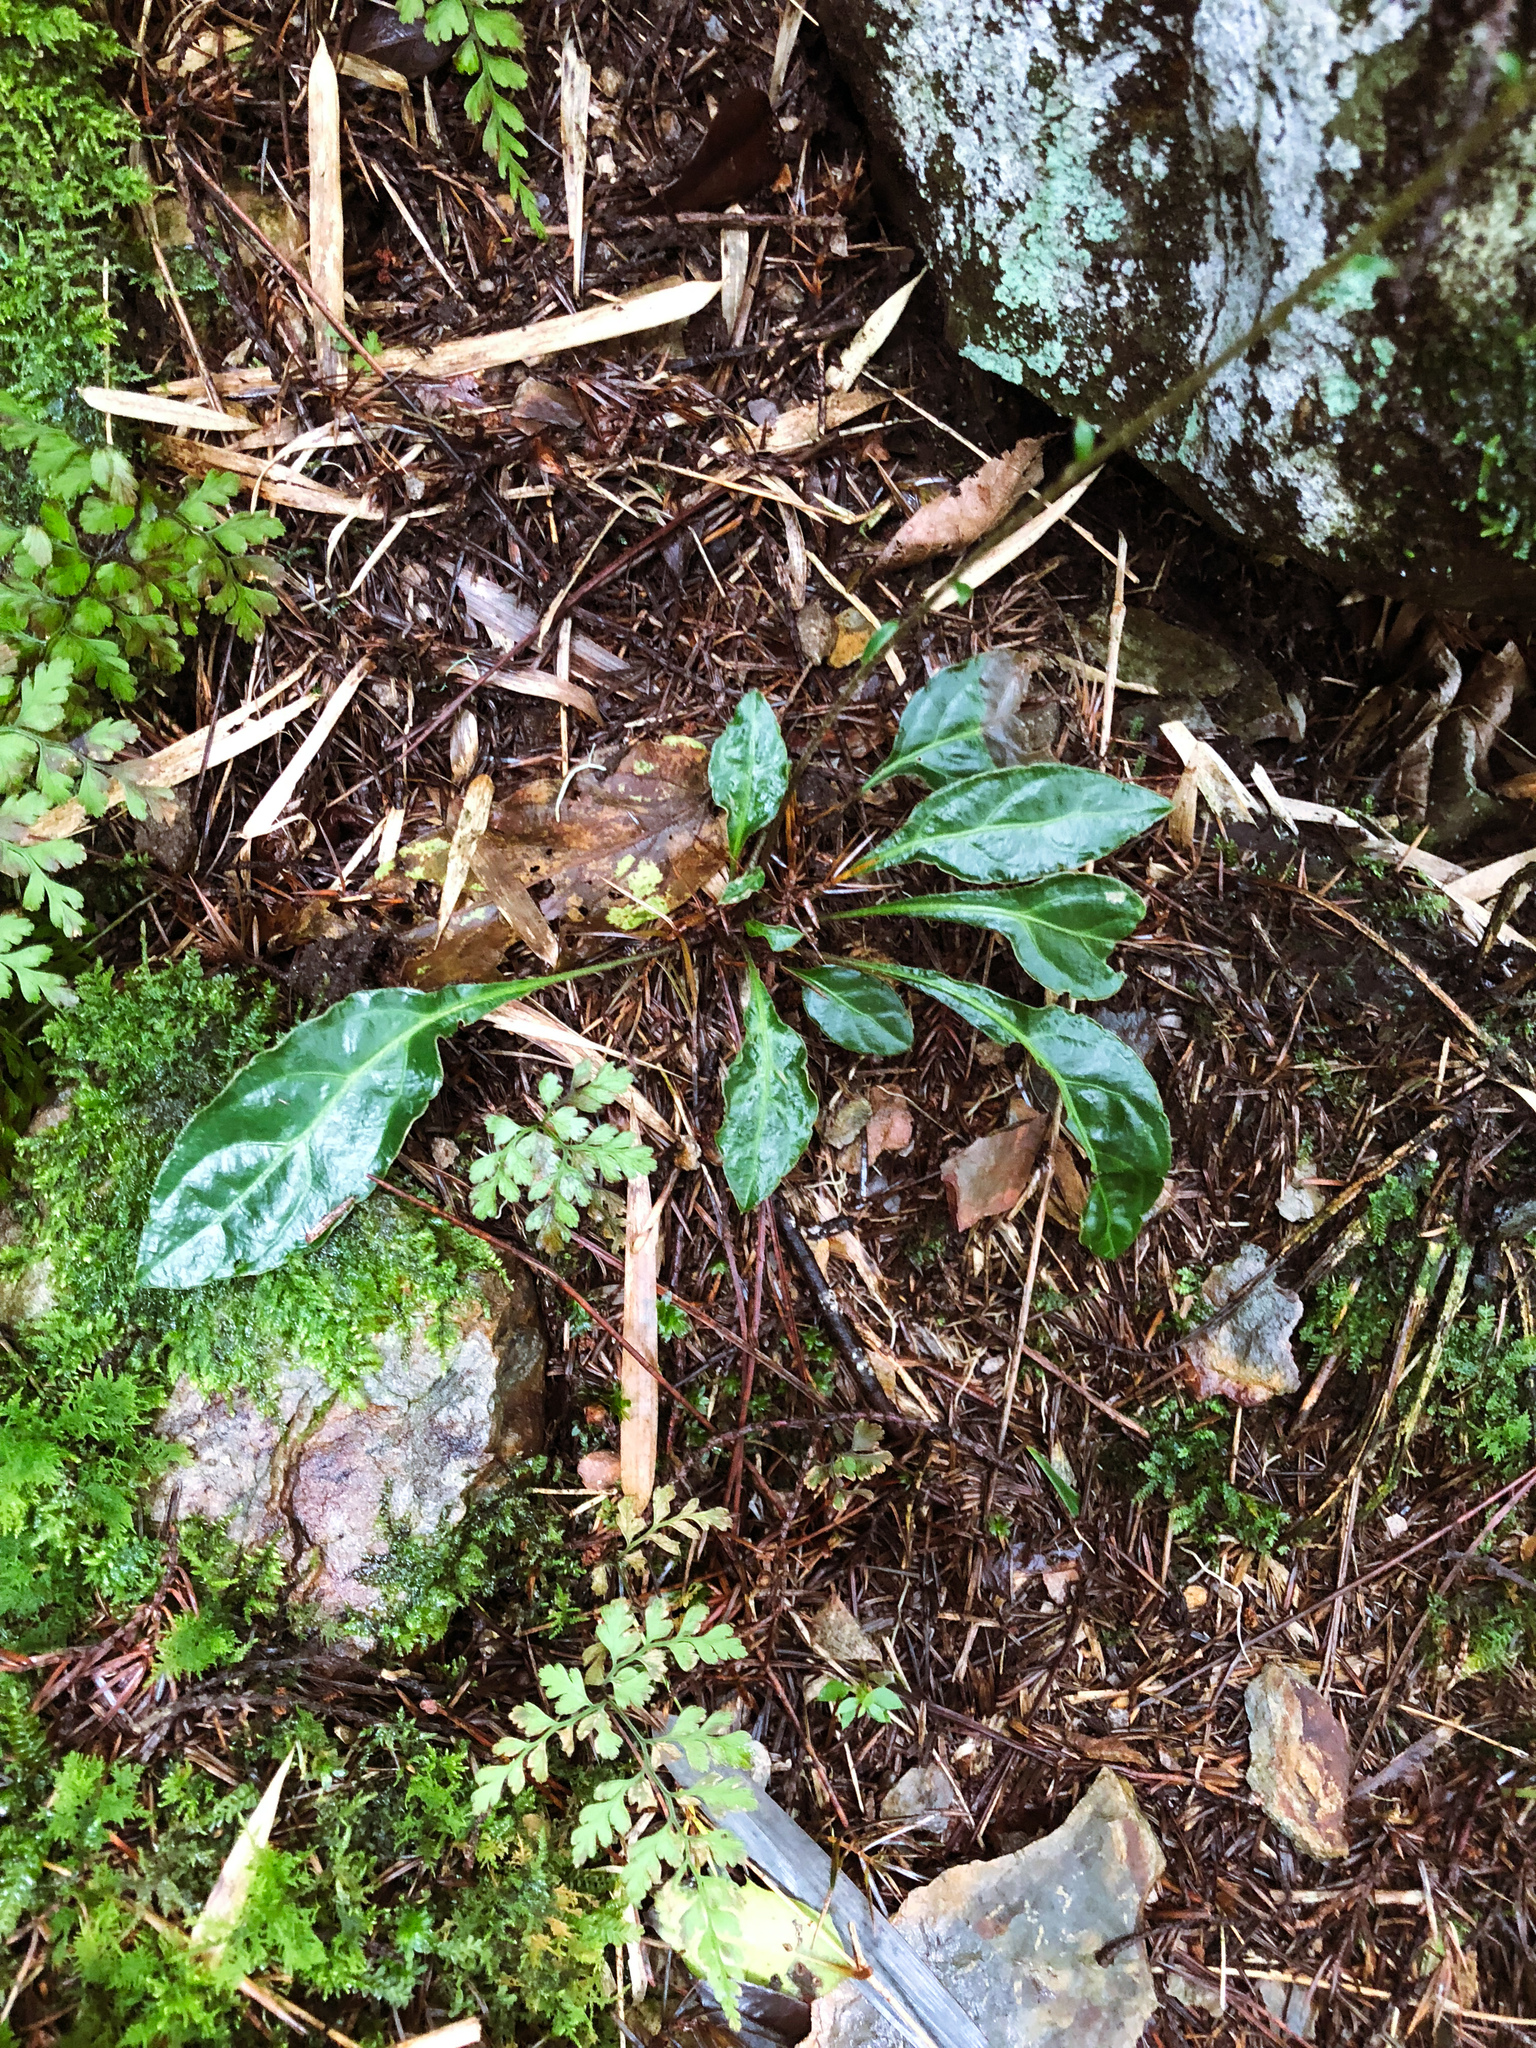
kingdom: Plantae
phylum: Tracheophyta
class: Magnoliopsida
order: Asterales
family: Asteraceae
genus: Ainsliaea
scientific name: Ainsliaea henryi
